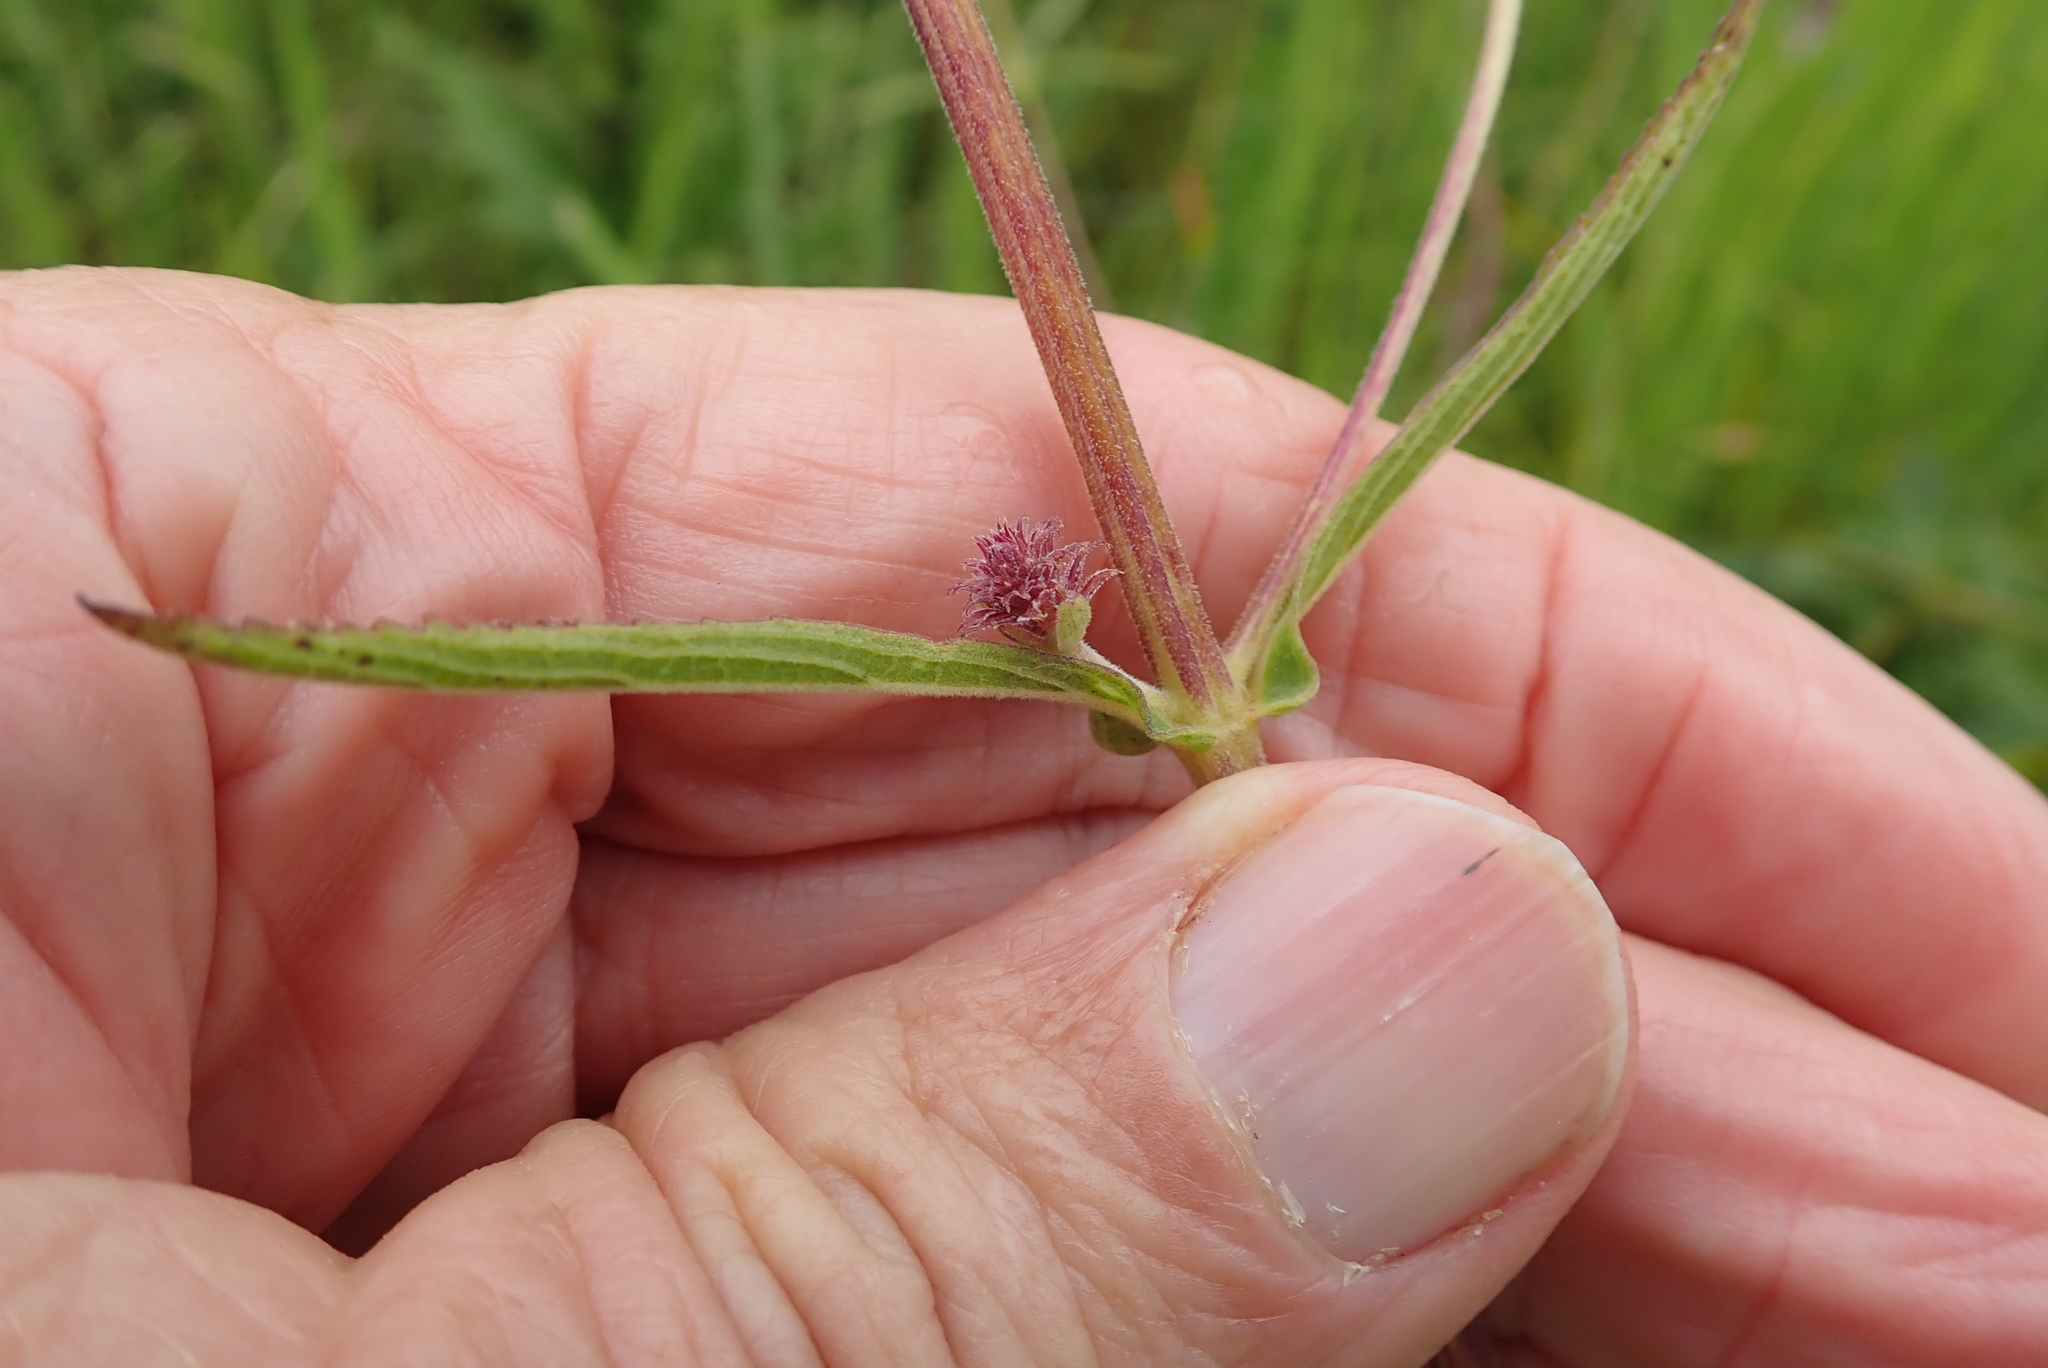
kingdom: Plantae
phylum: Tracheophyta
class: Magnoliopsida
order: Lamiales
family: Lamiaceae
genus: Coleus
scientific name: Coleus kirkii
